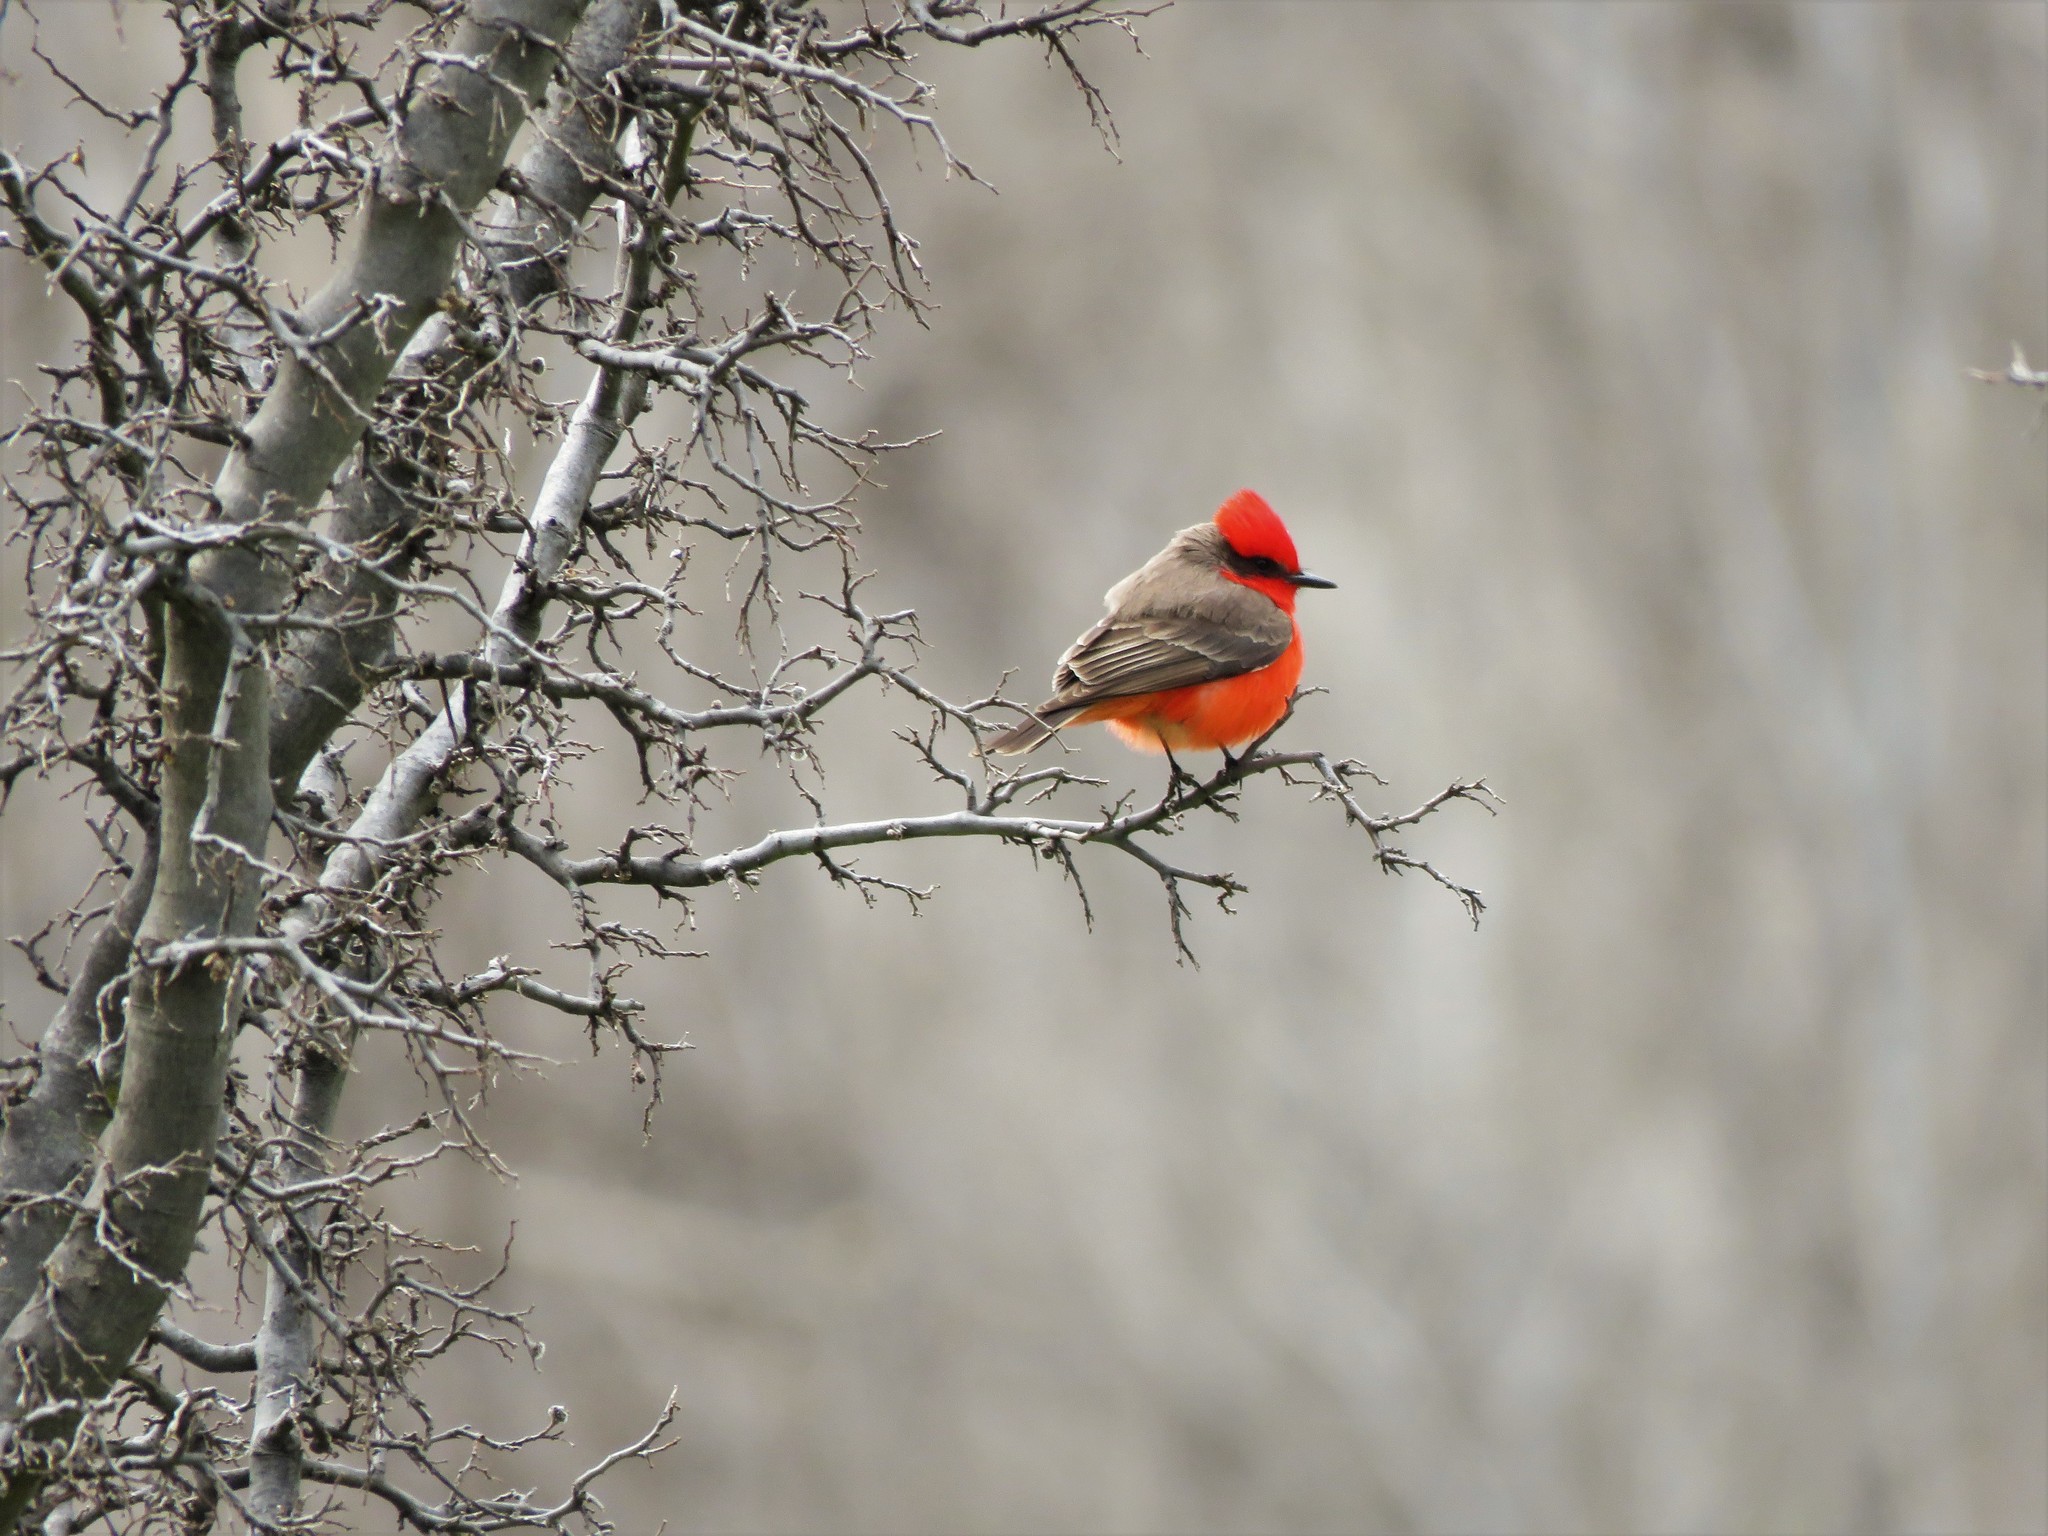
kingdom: Animalia
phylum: Chordata
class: Aves
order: Passeriformes
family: Tyrannidae
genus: Pyrocephalus
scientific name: Pyrocephalus rubinus
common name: Vermilion flycatcher
